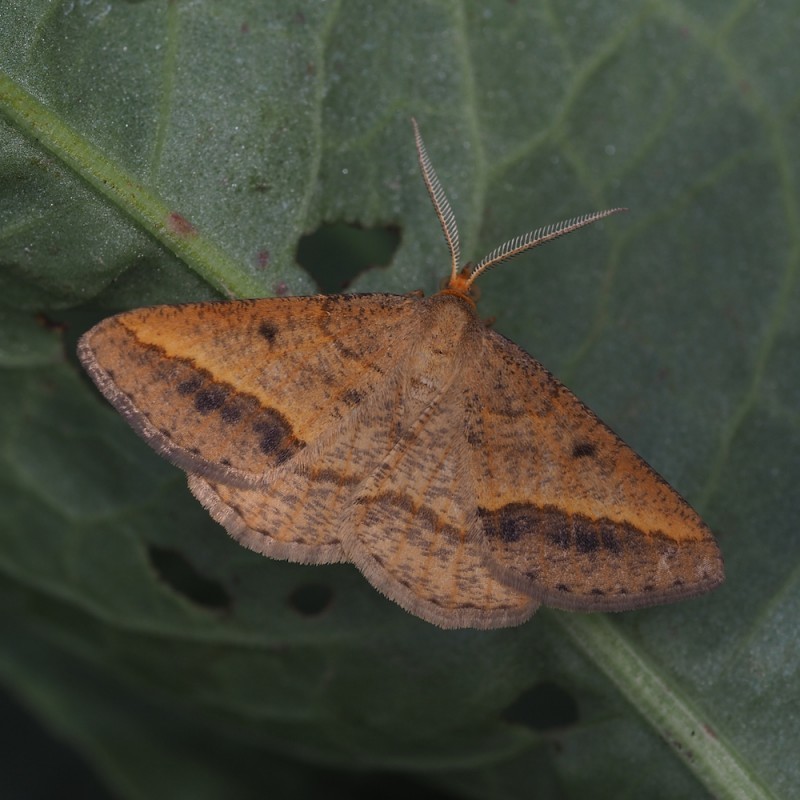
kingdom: Animalia
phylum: Arthropoda
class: Insecta
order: Lepidoptera
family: Geometridae
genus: Tephrina
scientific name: Tephrina arenacearia
